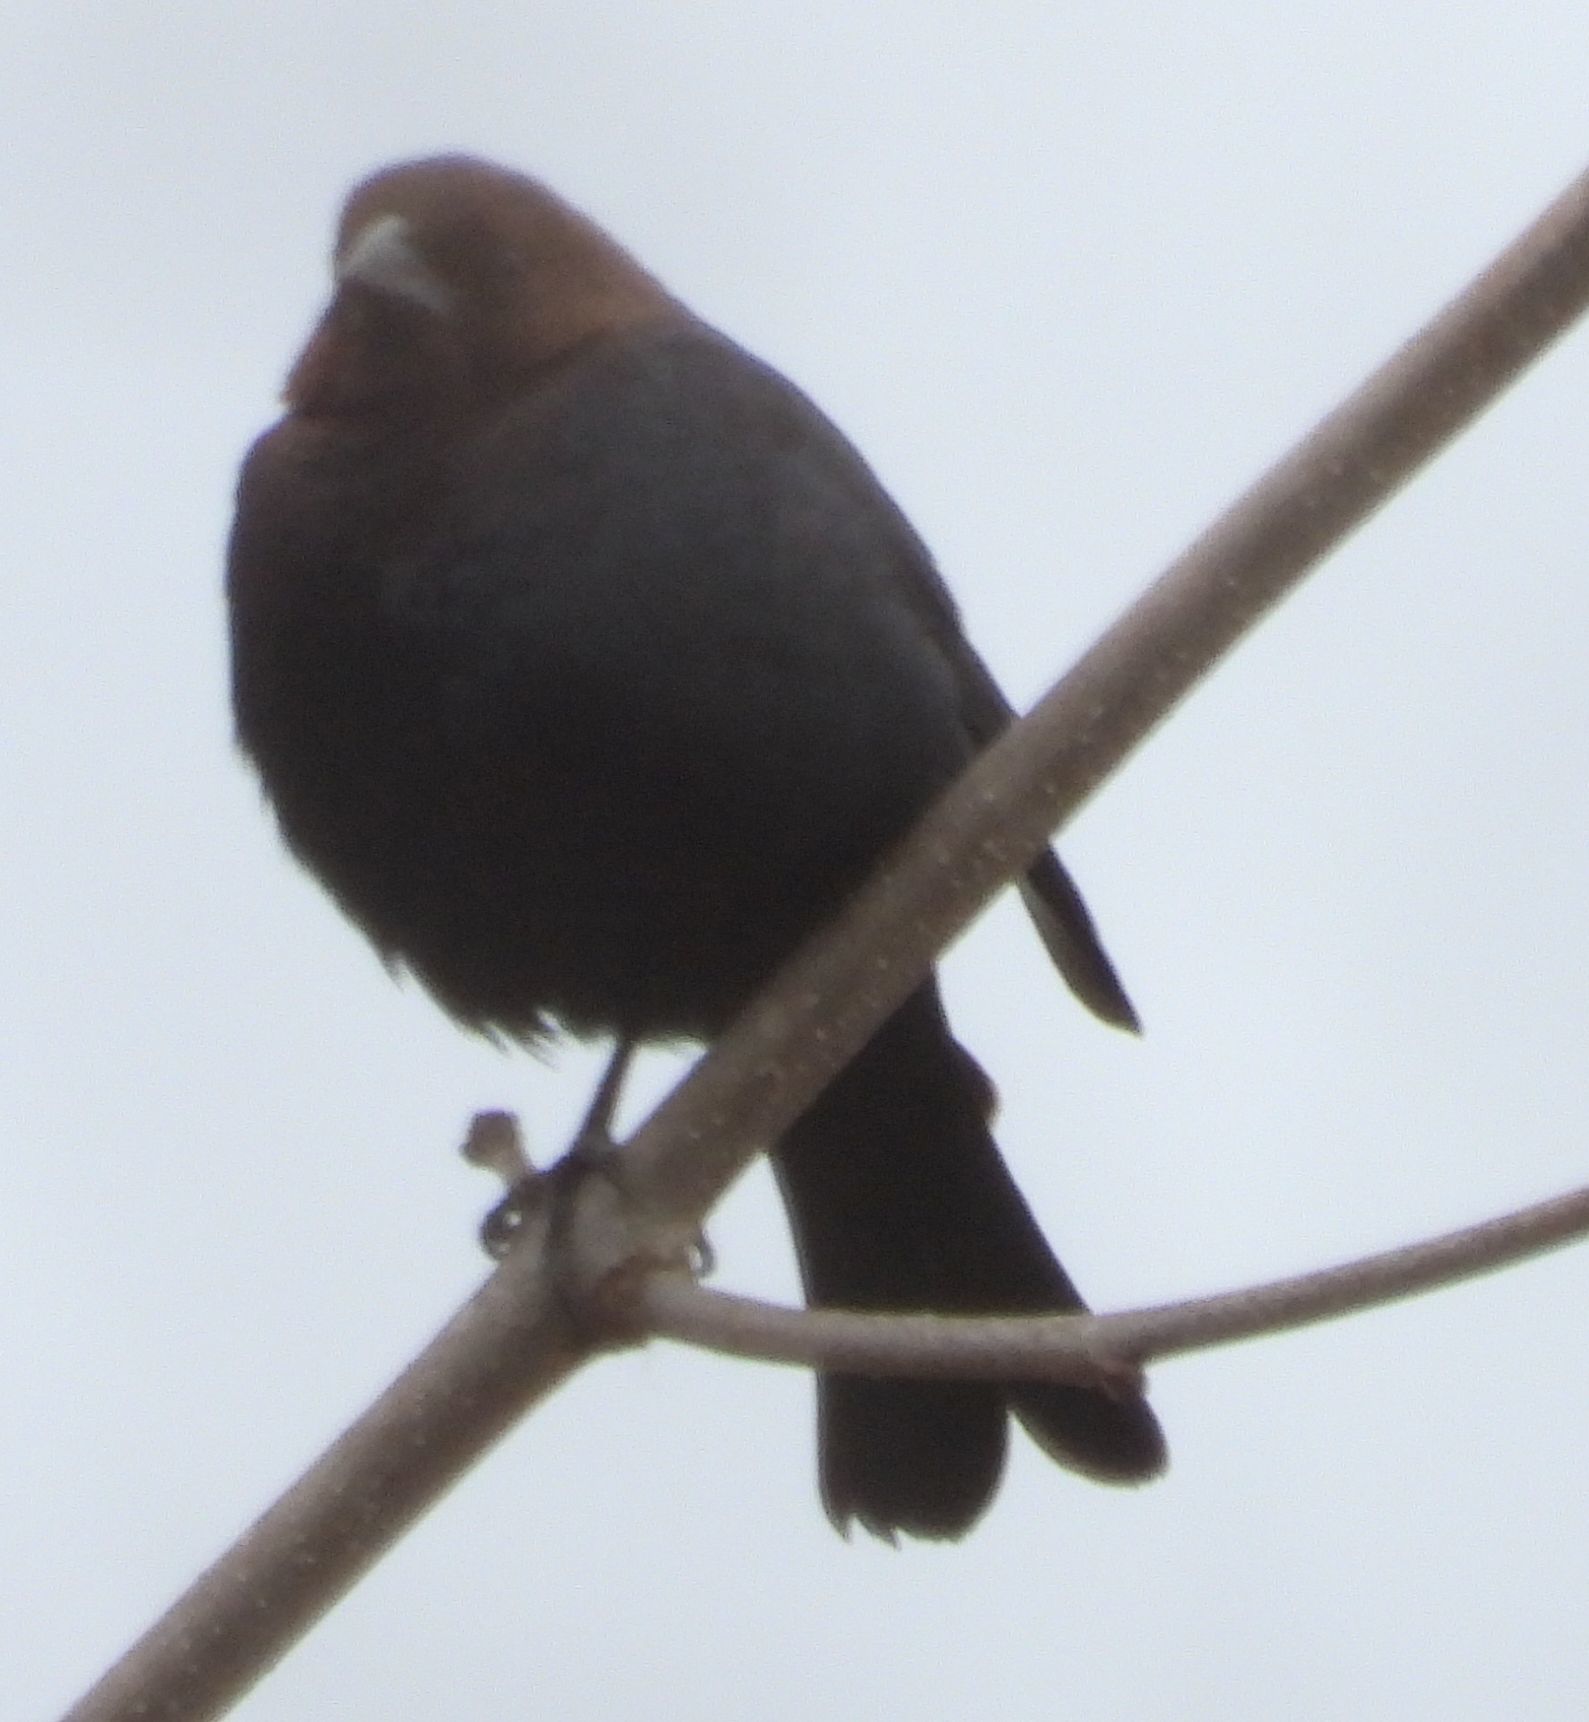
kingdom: Animalia
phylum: Chordata
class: Aves
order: Passeriformes
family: Icteridae
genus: Molothrus
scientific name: Molothrus ater
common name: Brown-headed cowbird
